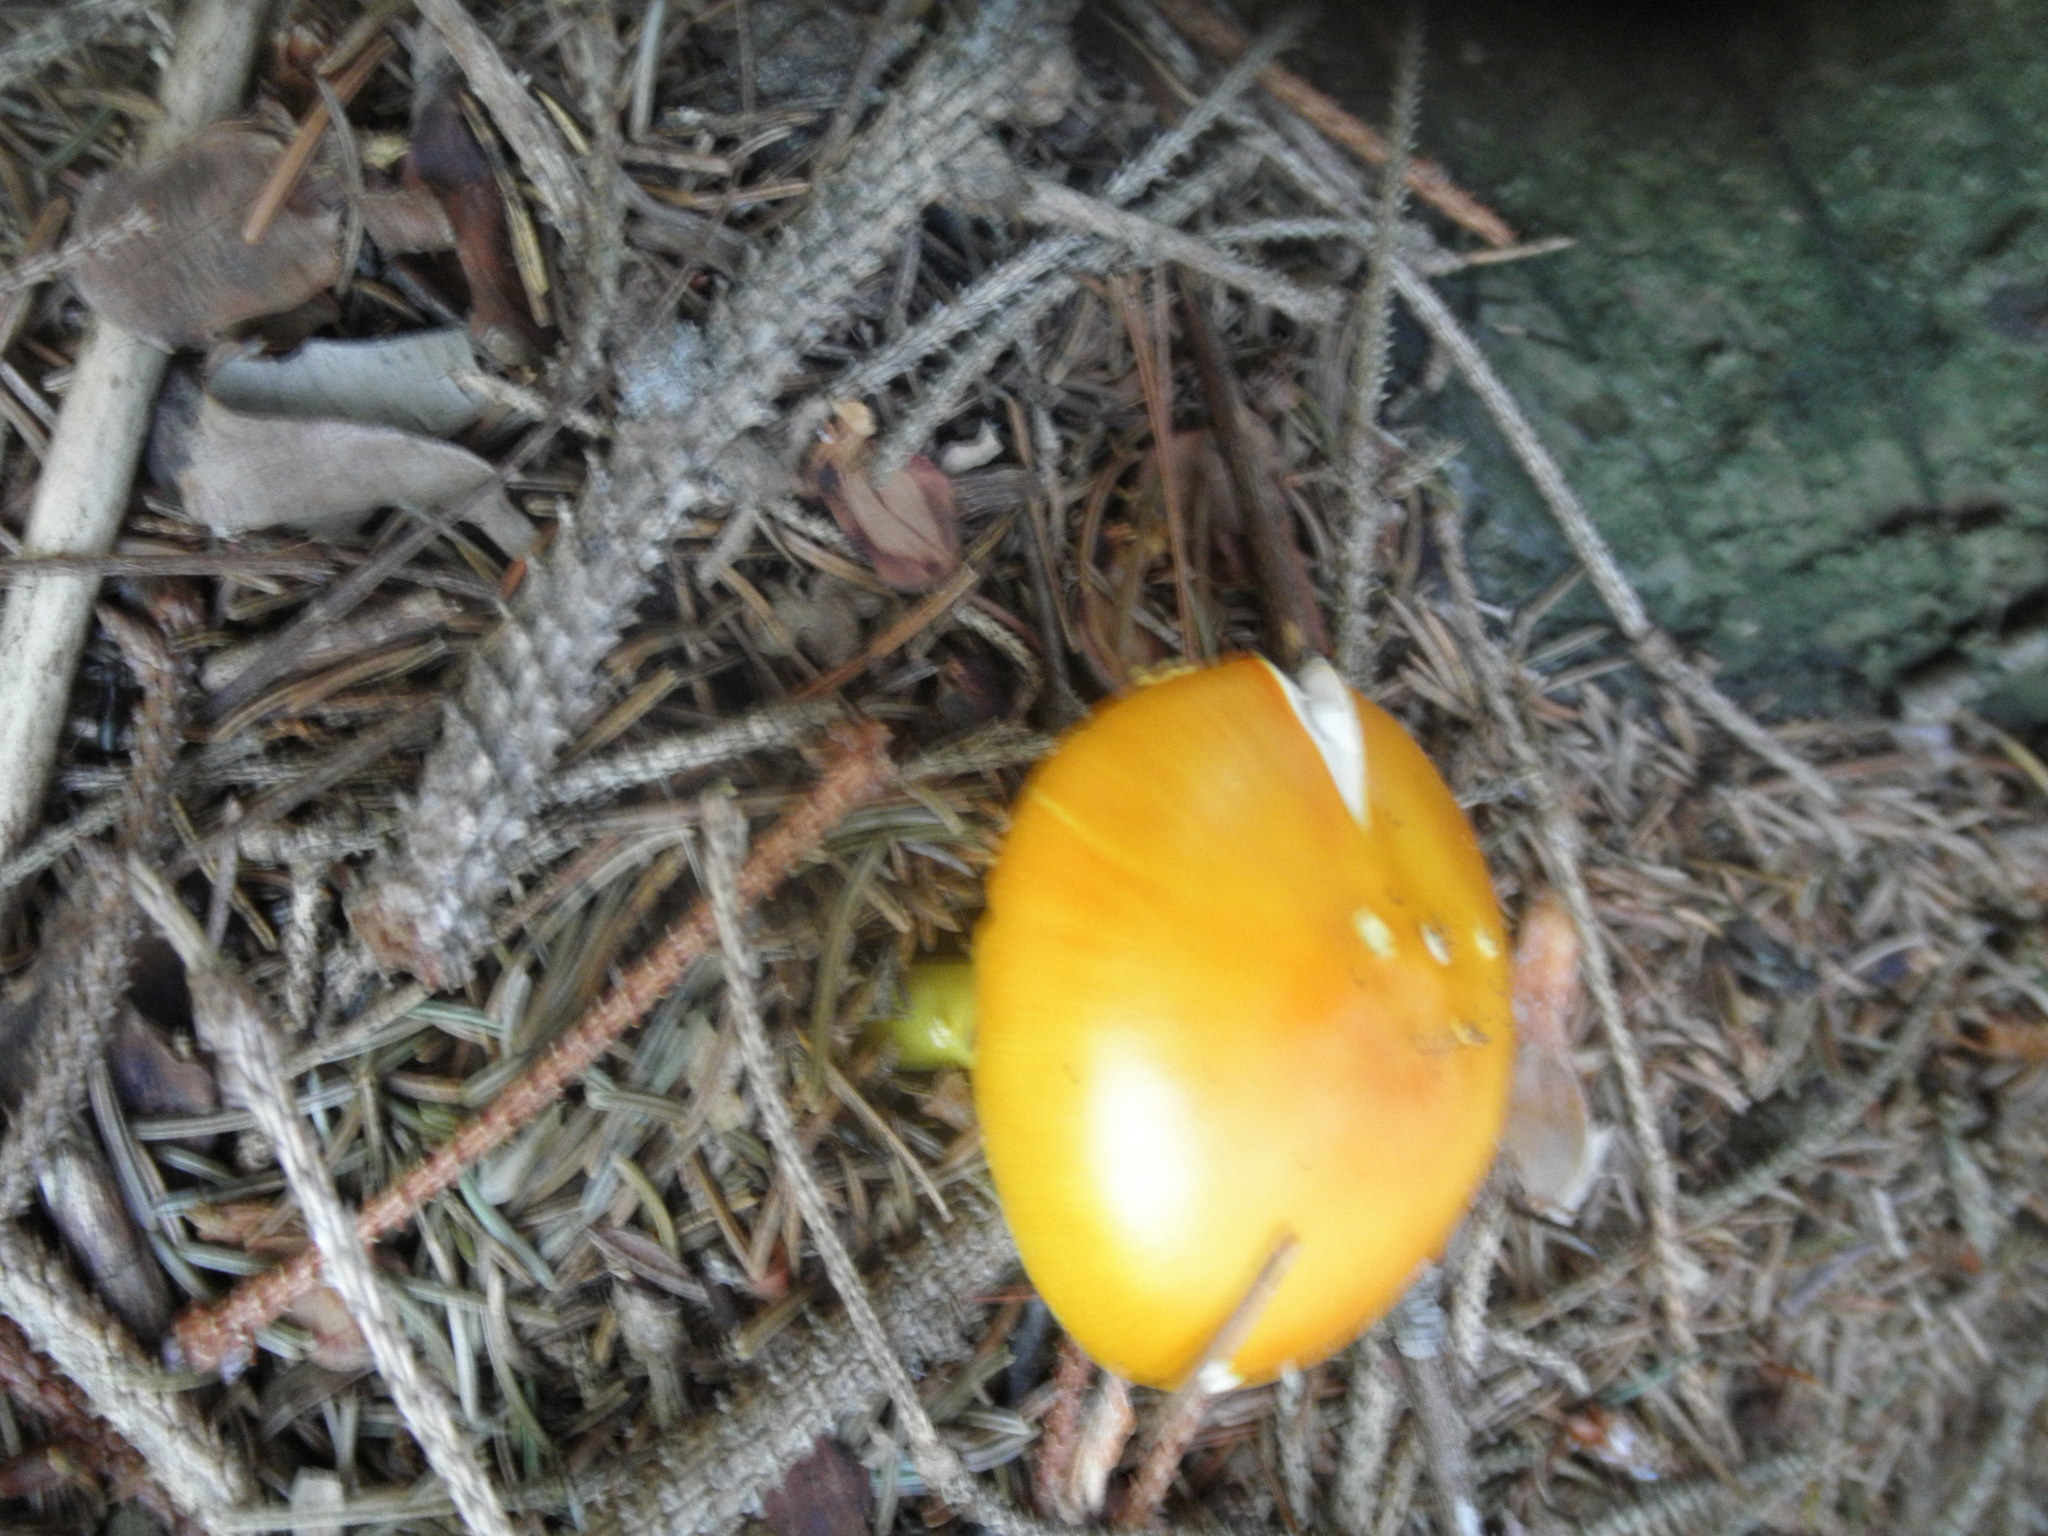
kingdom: Fungi
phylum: Basidiomycota
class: Agaricomycetes
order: Agaricales
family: Amanitaceae
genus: Amanita
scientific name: Amanita flavoconia
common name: Yellow patches
